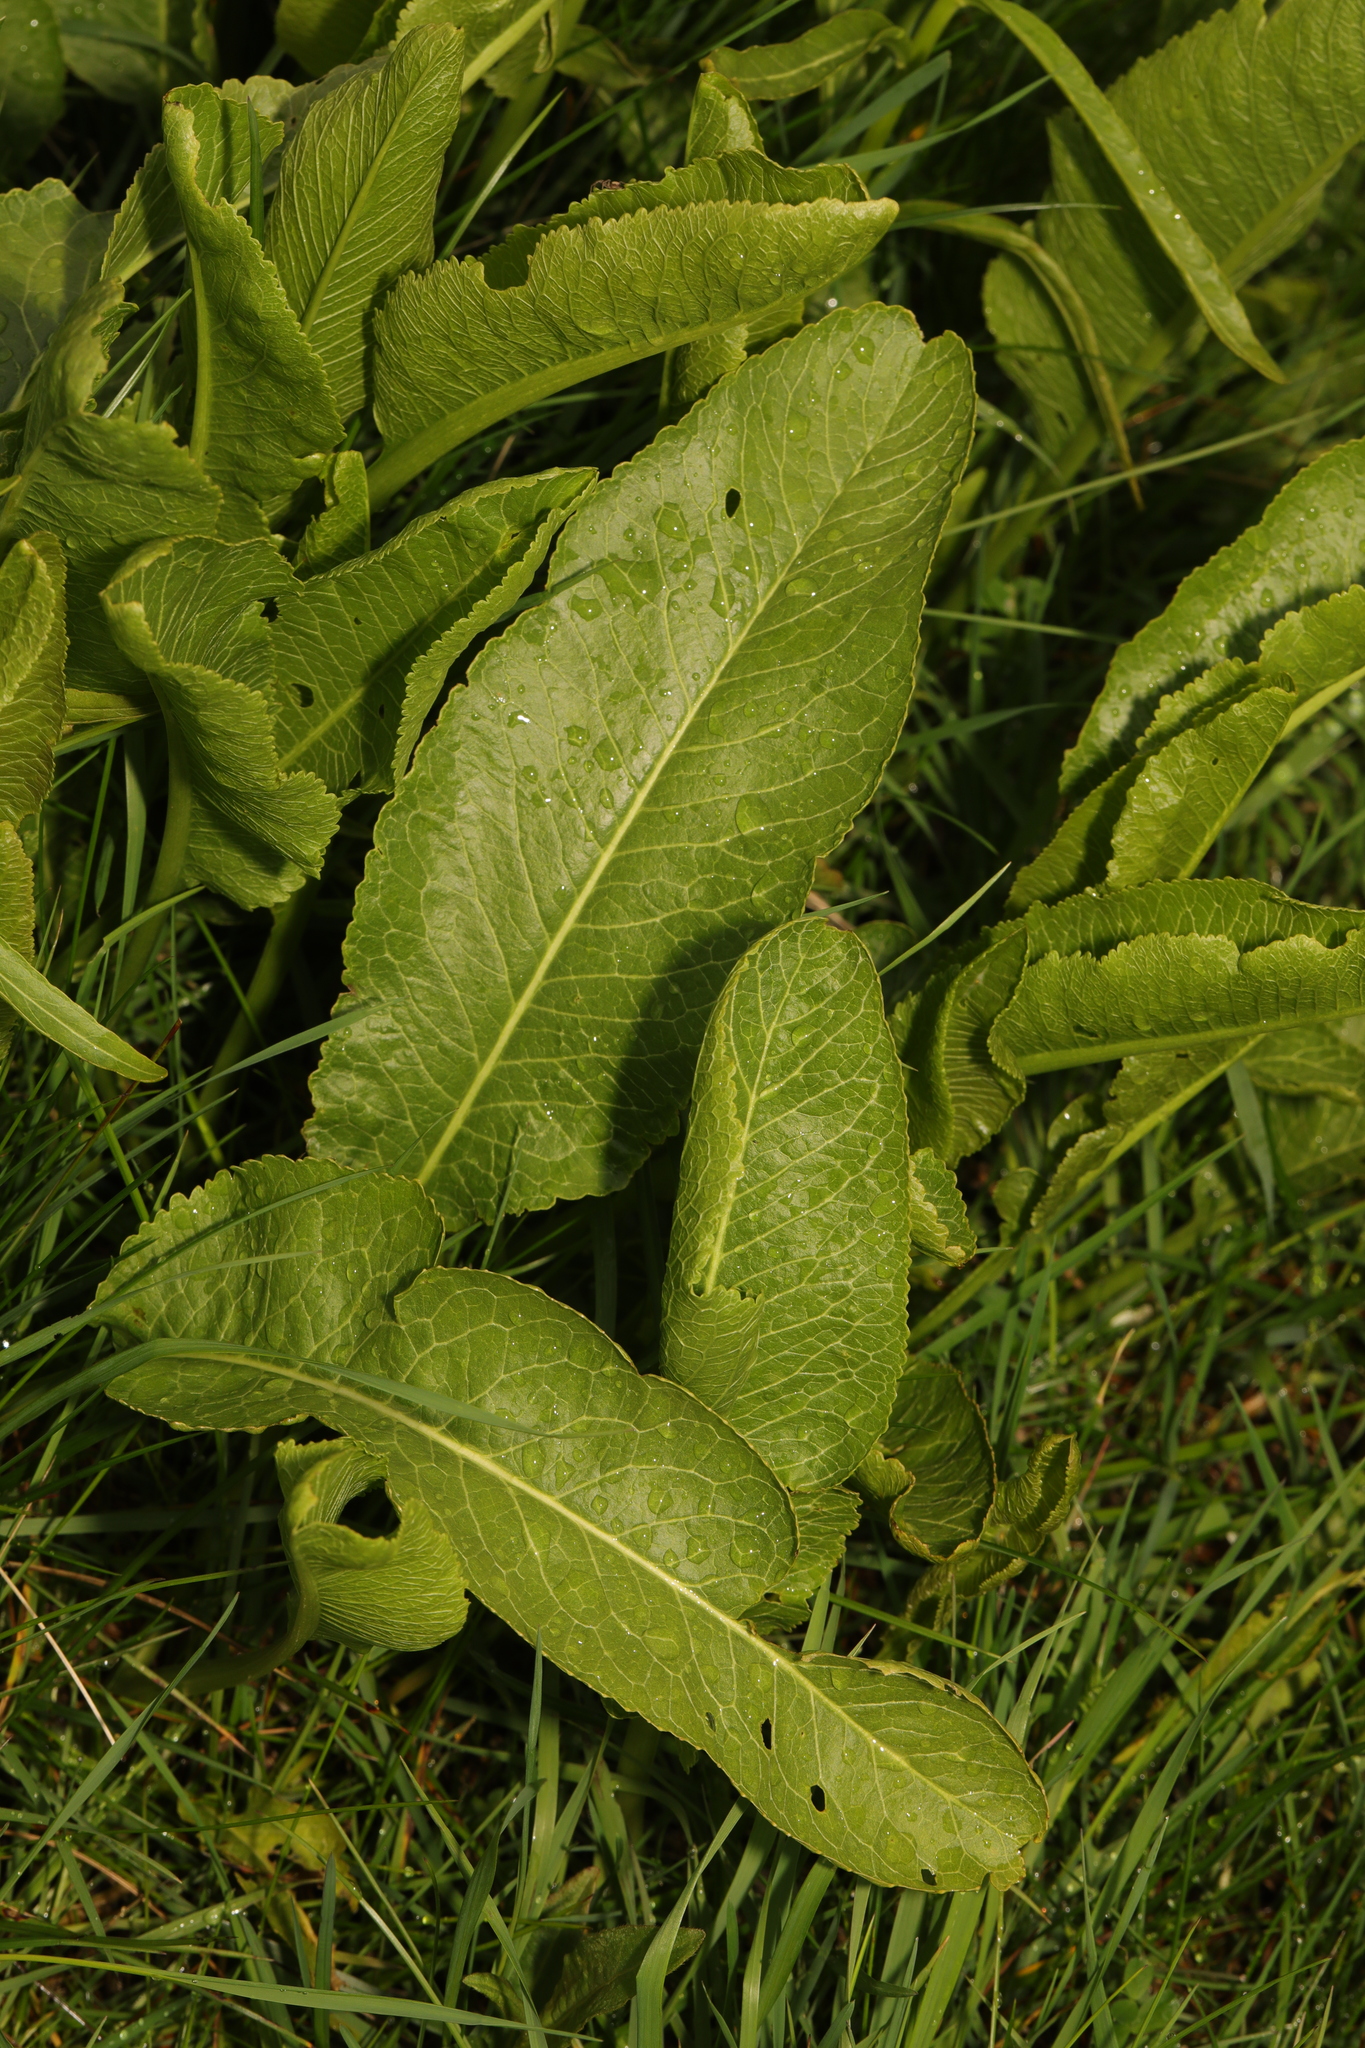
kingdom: Plantae
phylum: Tracheophyta
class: Magnoliopsida
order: Brassicales
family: Brassicaceae
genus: Armoracia
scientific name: Armoracia rusticana
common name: Horseradish
